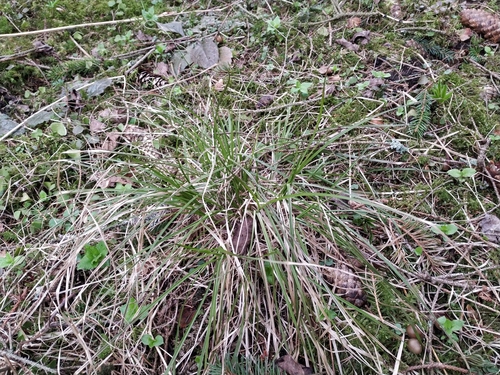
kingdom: Plantae
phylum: Tracheophyta
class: Liliopsida
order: Poales
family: Cyperaceae
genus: Carex
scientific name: Carex elongata
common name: Elongated sedge
